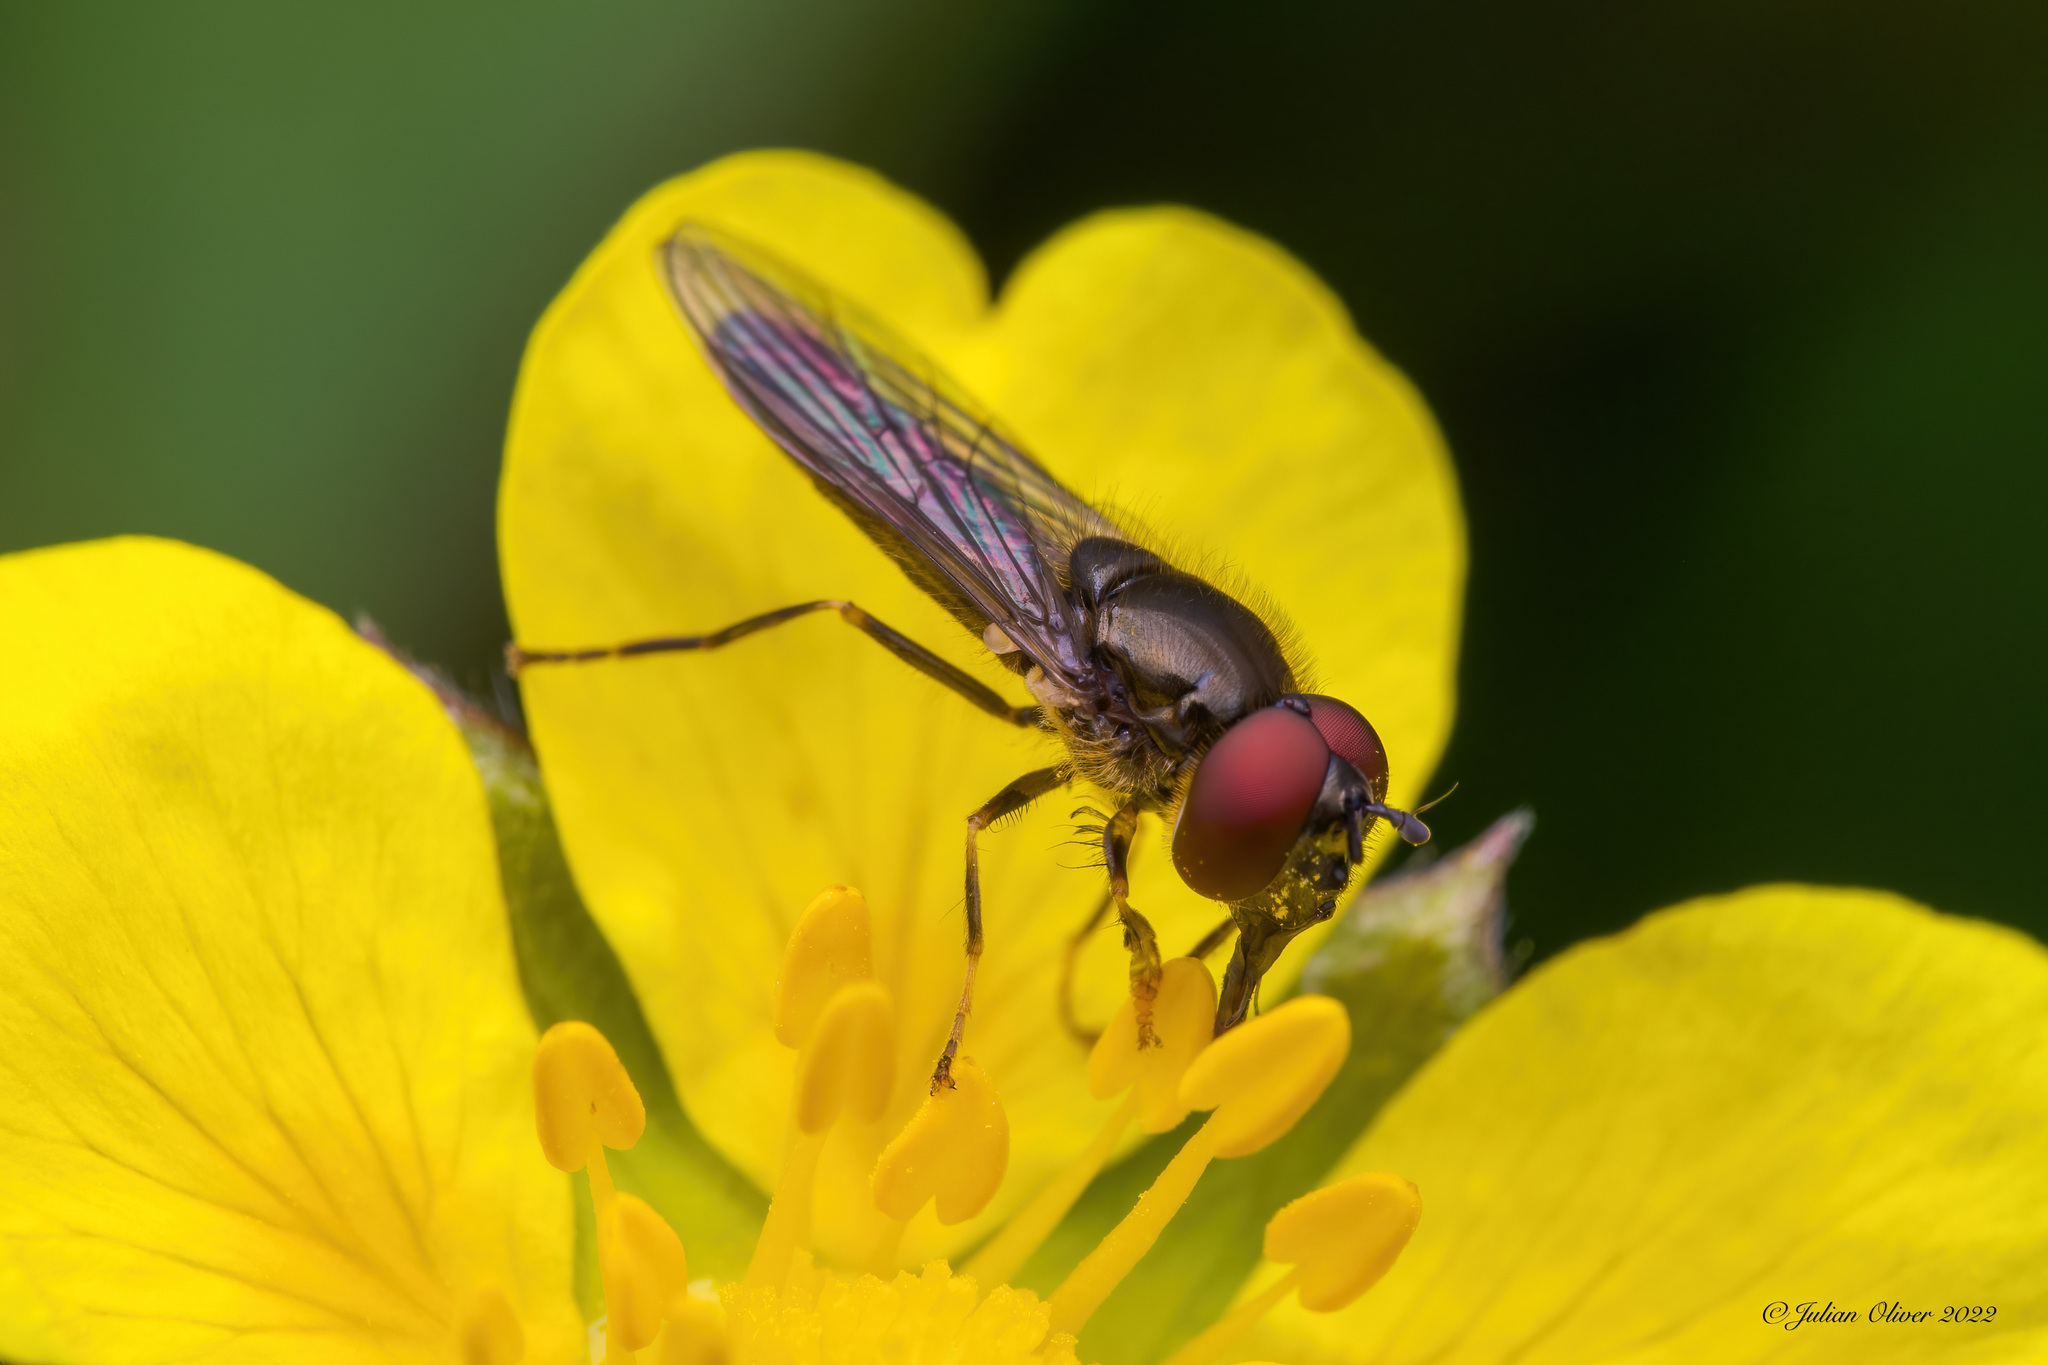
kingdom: Animalia
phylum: Arthropoda
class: Insecta
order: Diptera
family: Syrphidae
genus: Platycheirus
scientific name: Platycheirus albimanus
